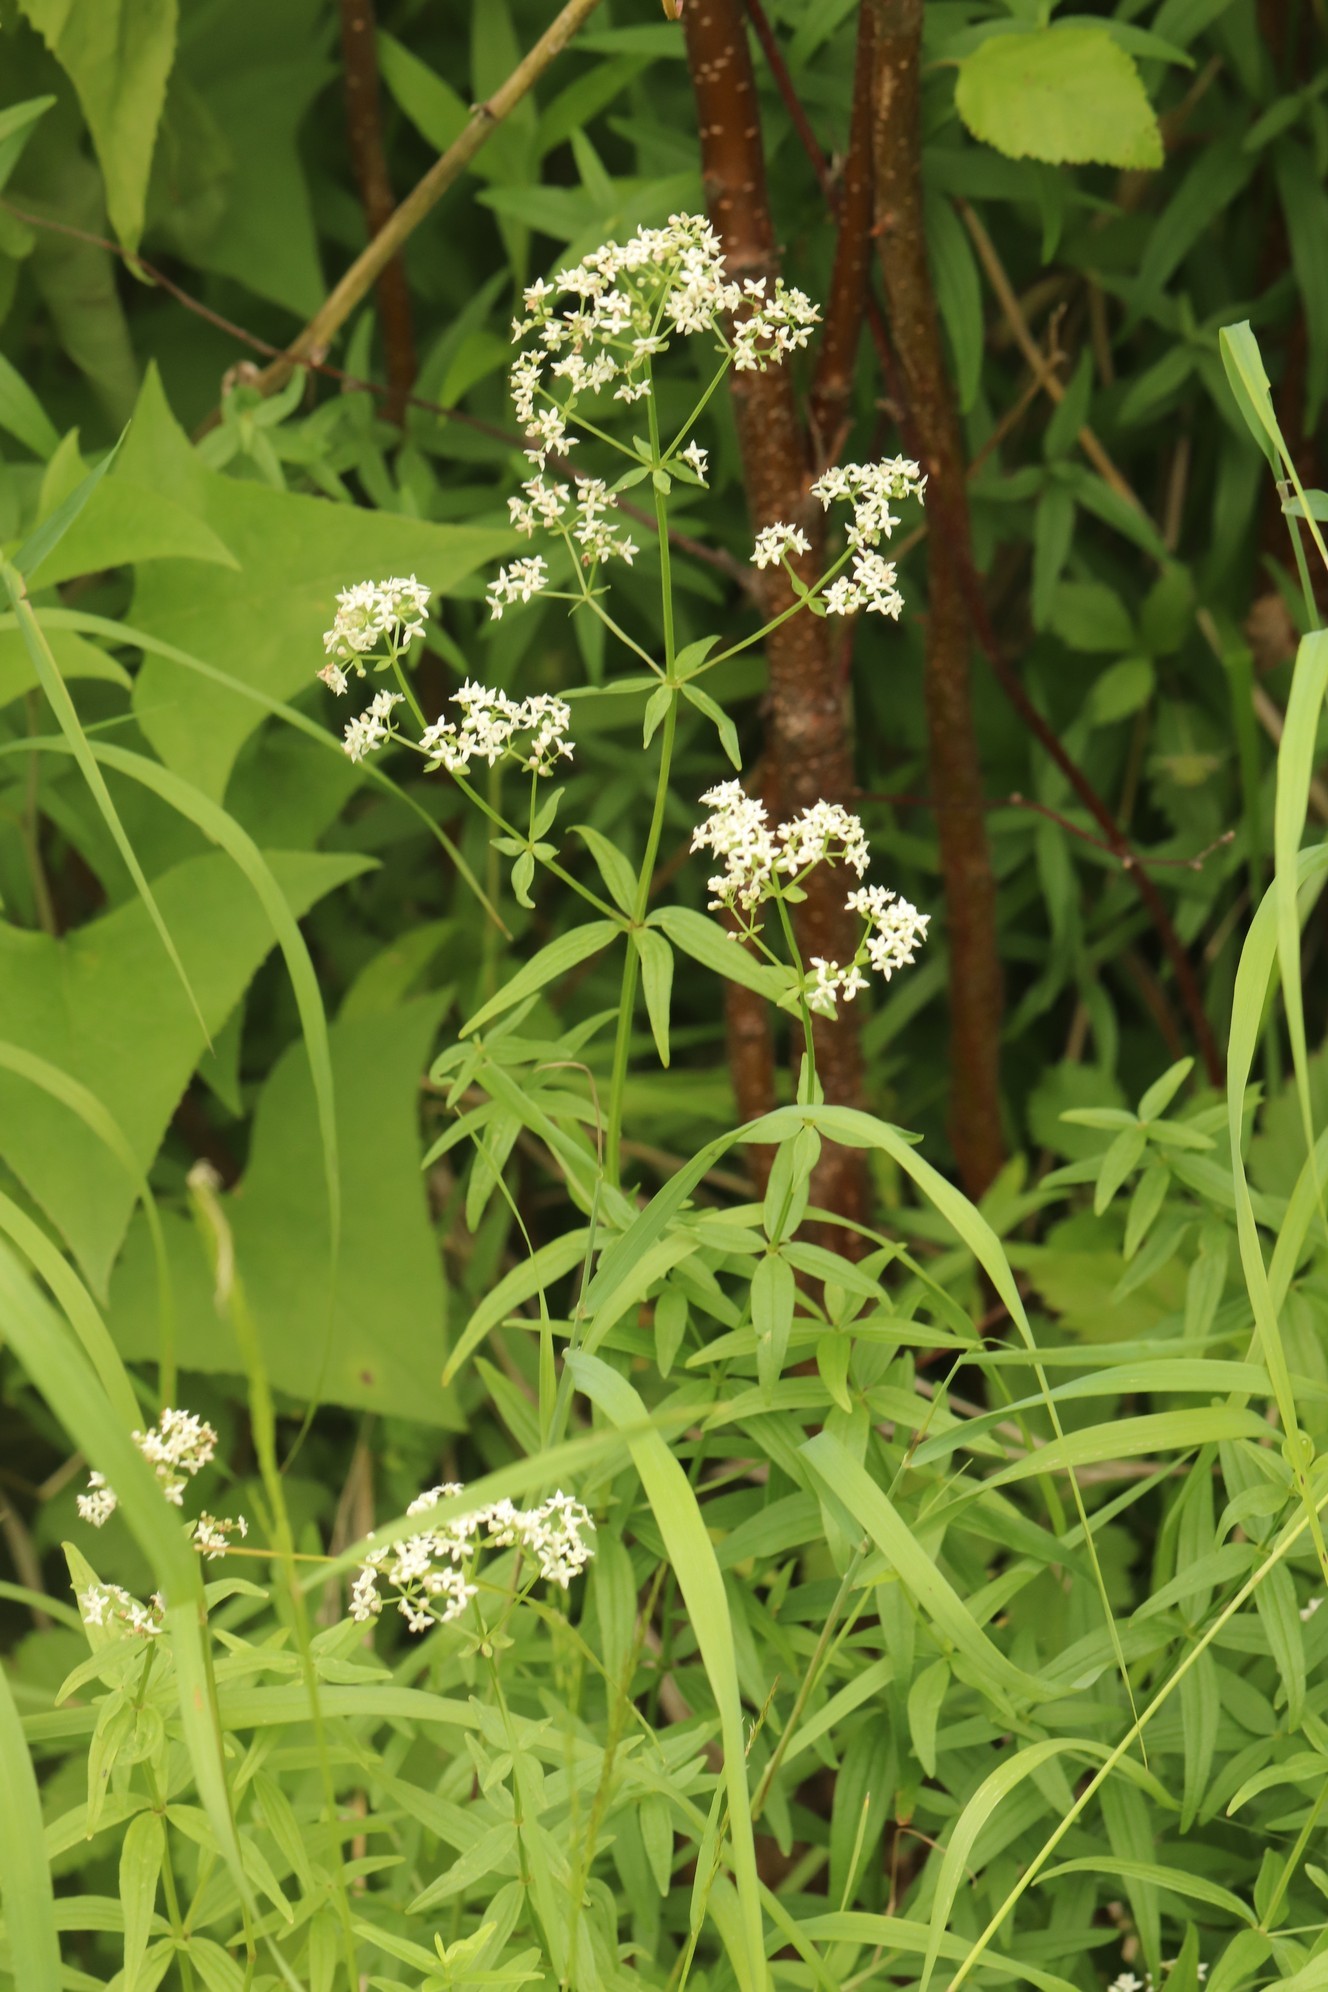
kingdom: Plantae
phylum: Tracheophyta
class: Magnoliopsida
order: Gentianales
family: Rubiaceae
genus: Galium
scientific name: Galium boreale
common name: Northern bedstraw
